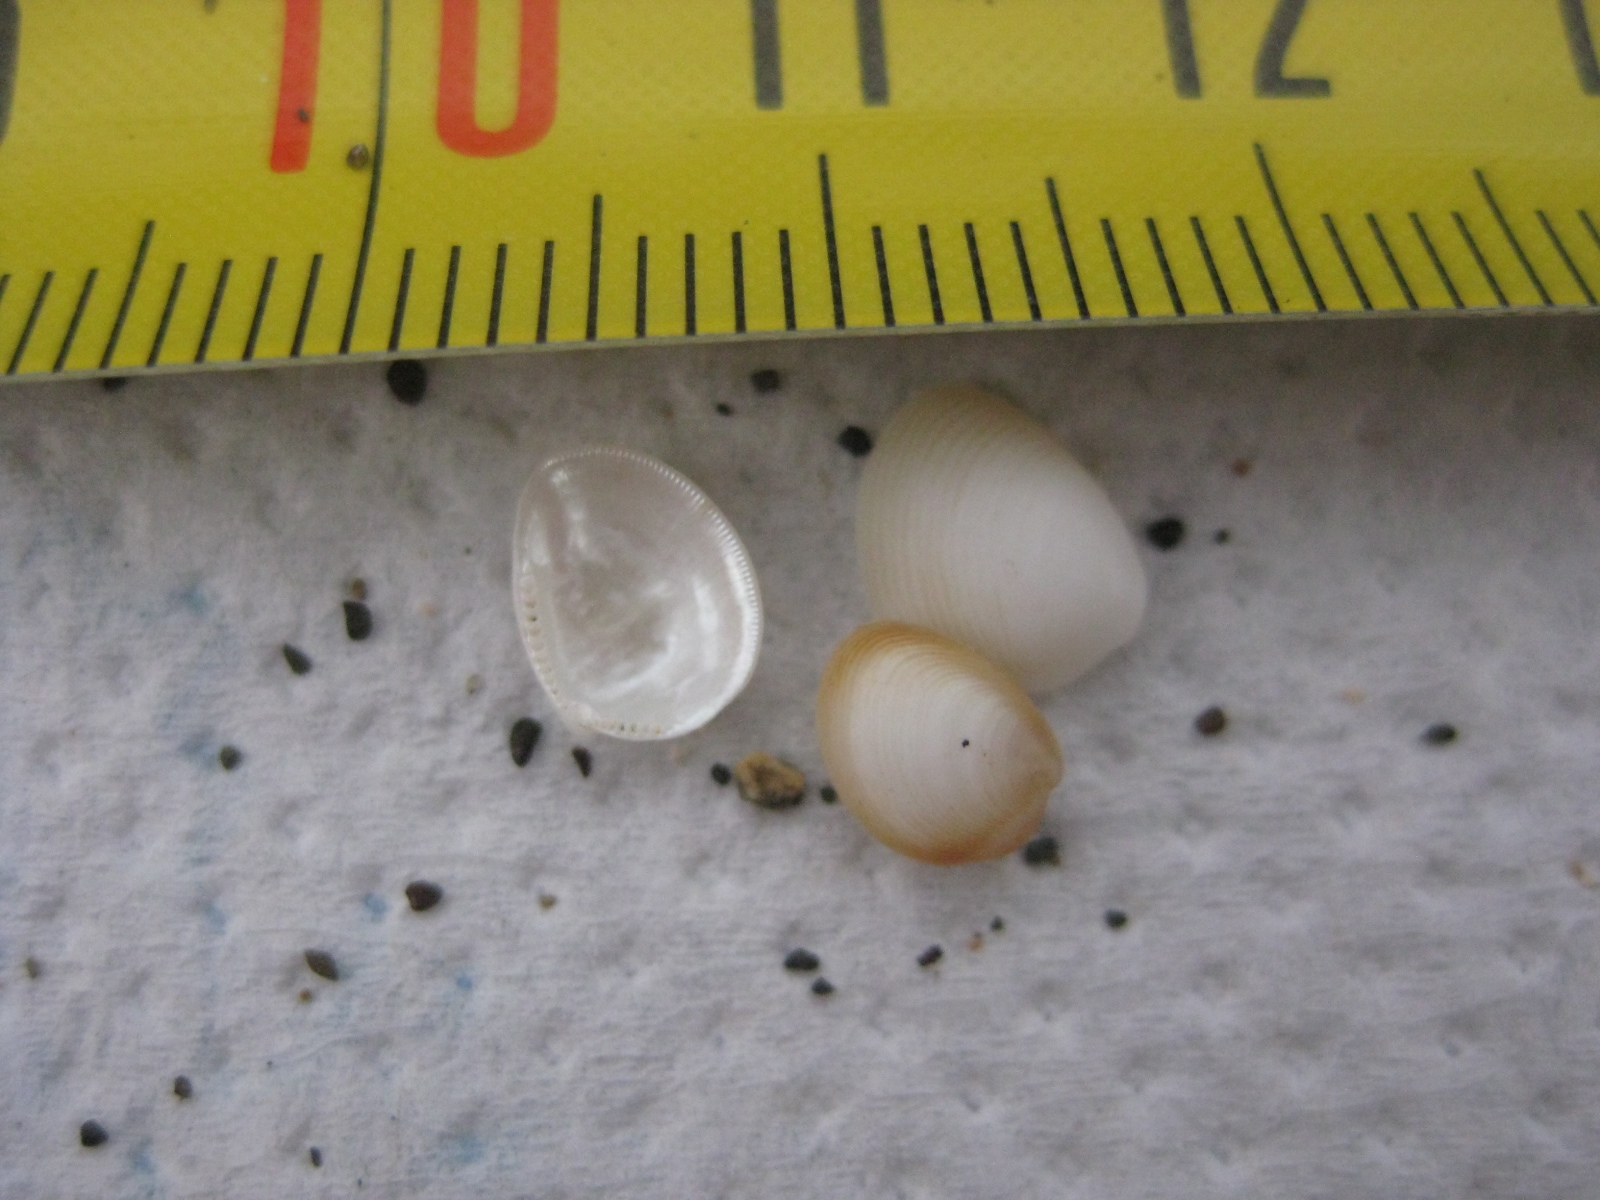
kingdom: Animalia
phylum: Mollusca
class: Bivalvia
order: Nuculida
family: Nuculidae
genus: Linucula
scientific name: Linucula hartvigiana
